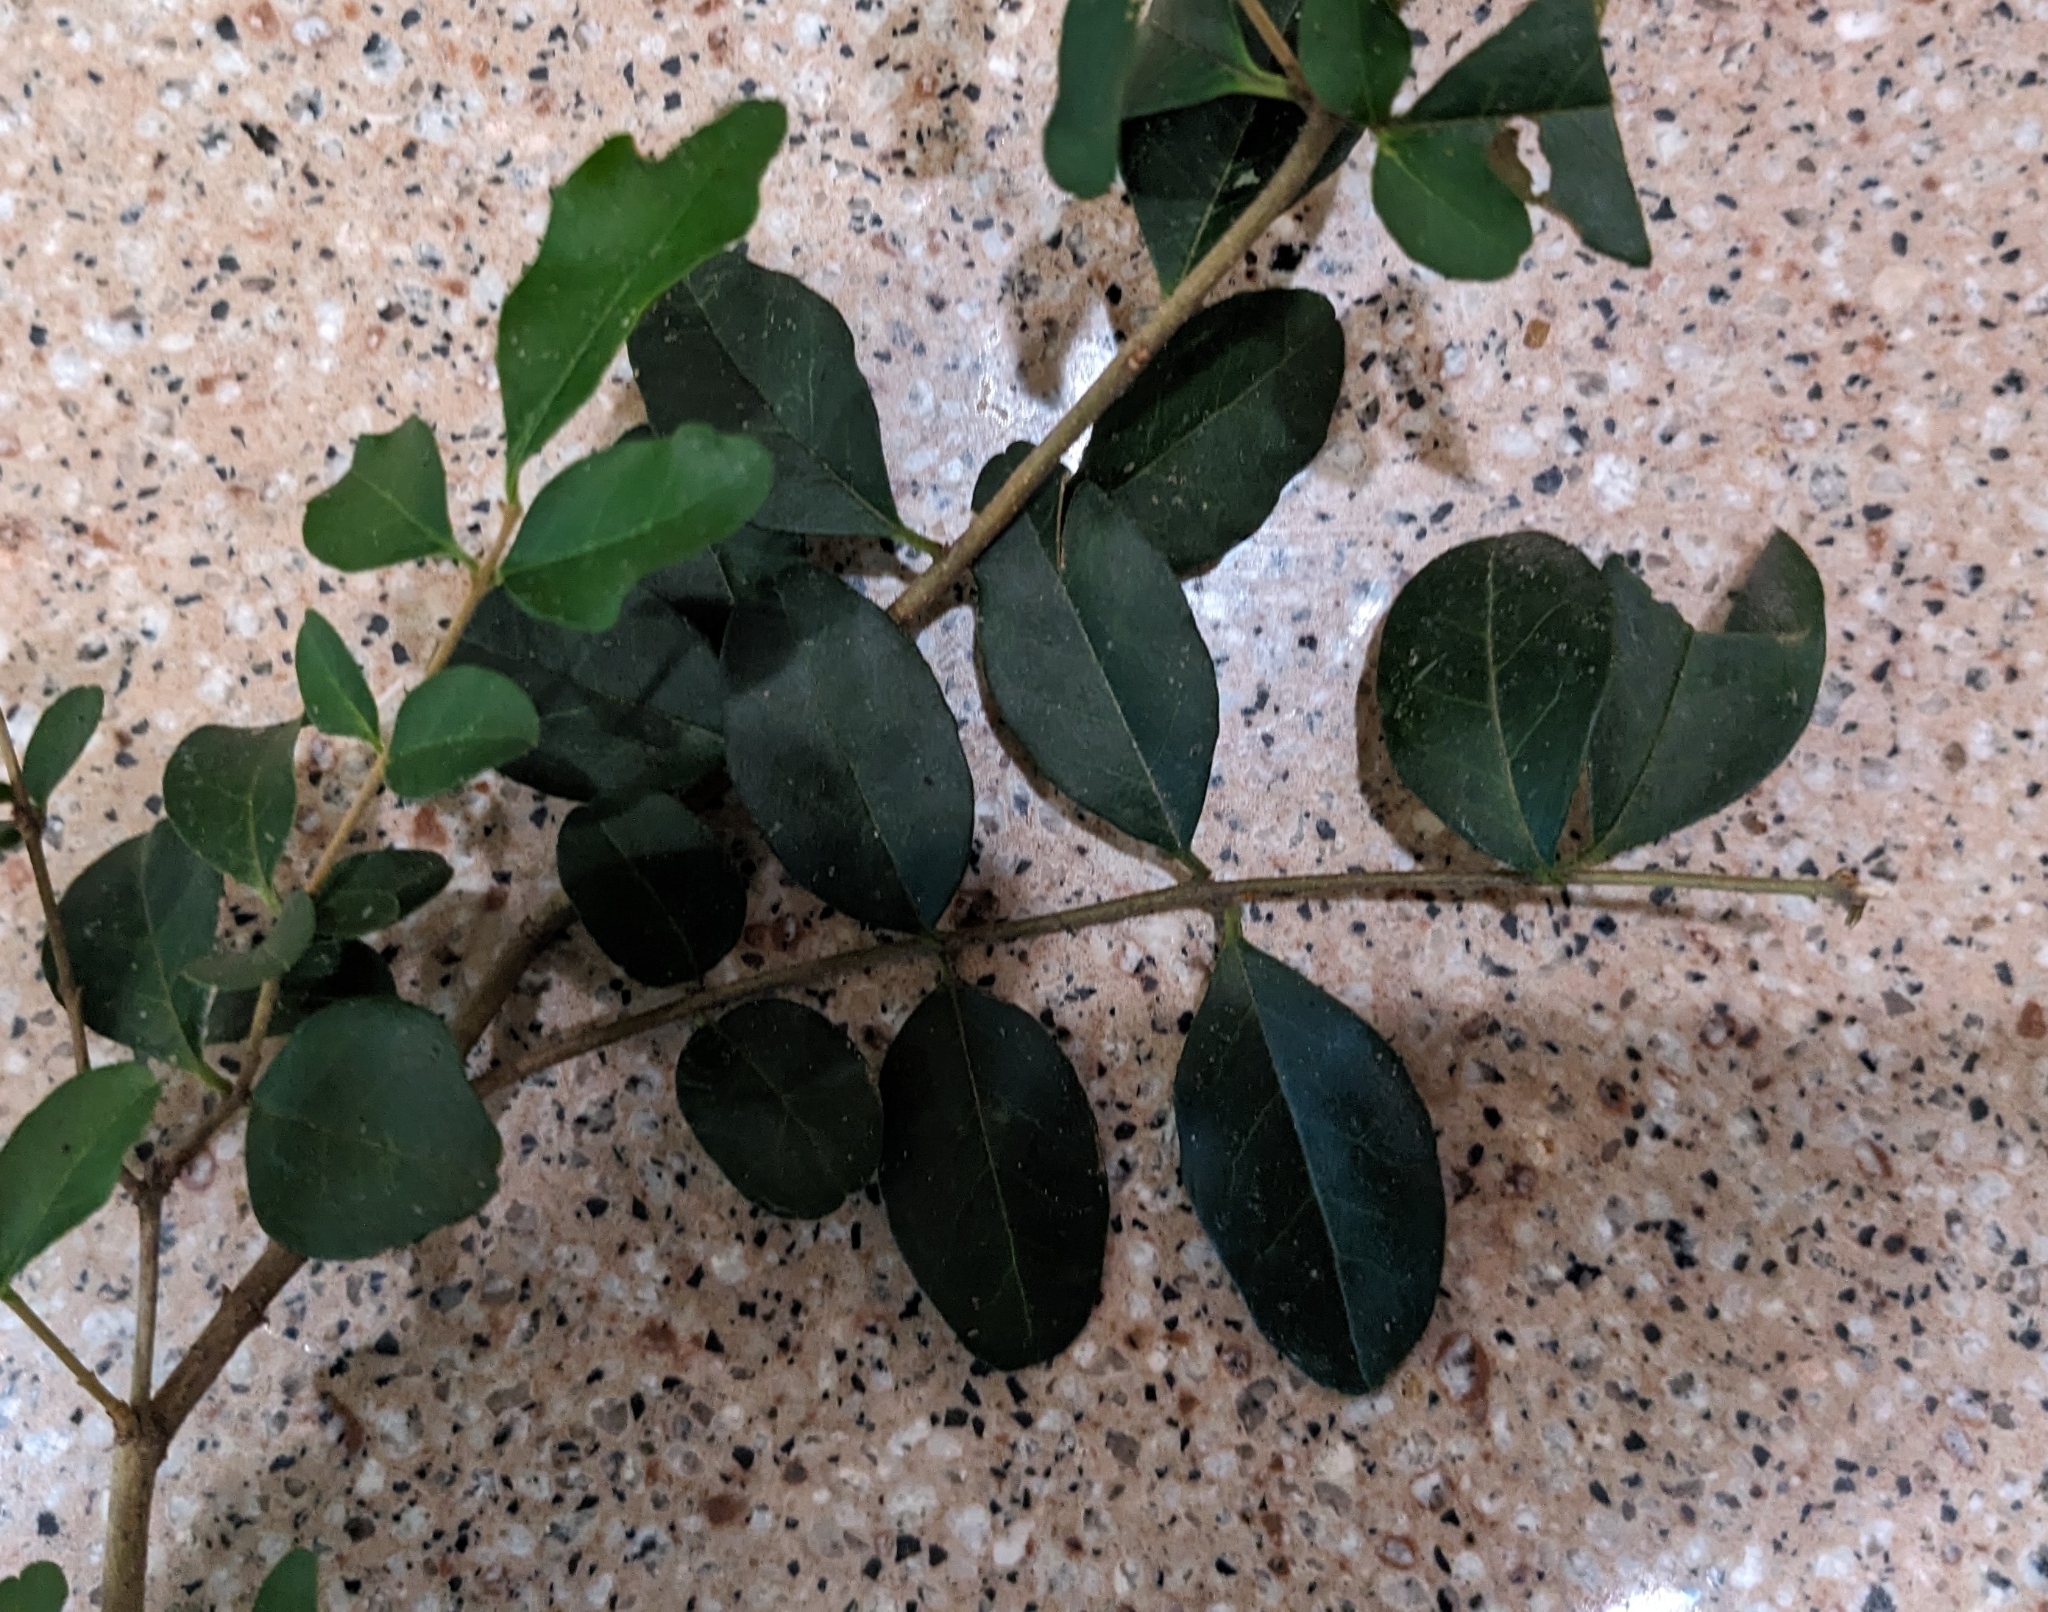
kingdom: Plantae
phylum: Tracheophyta
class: Magnoliopsida
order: Lamiales
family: Oleaceae
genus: Ligustrum
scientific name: Ligustrum sinense
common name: Chinese privet
